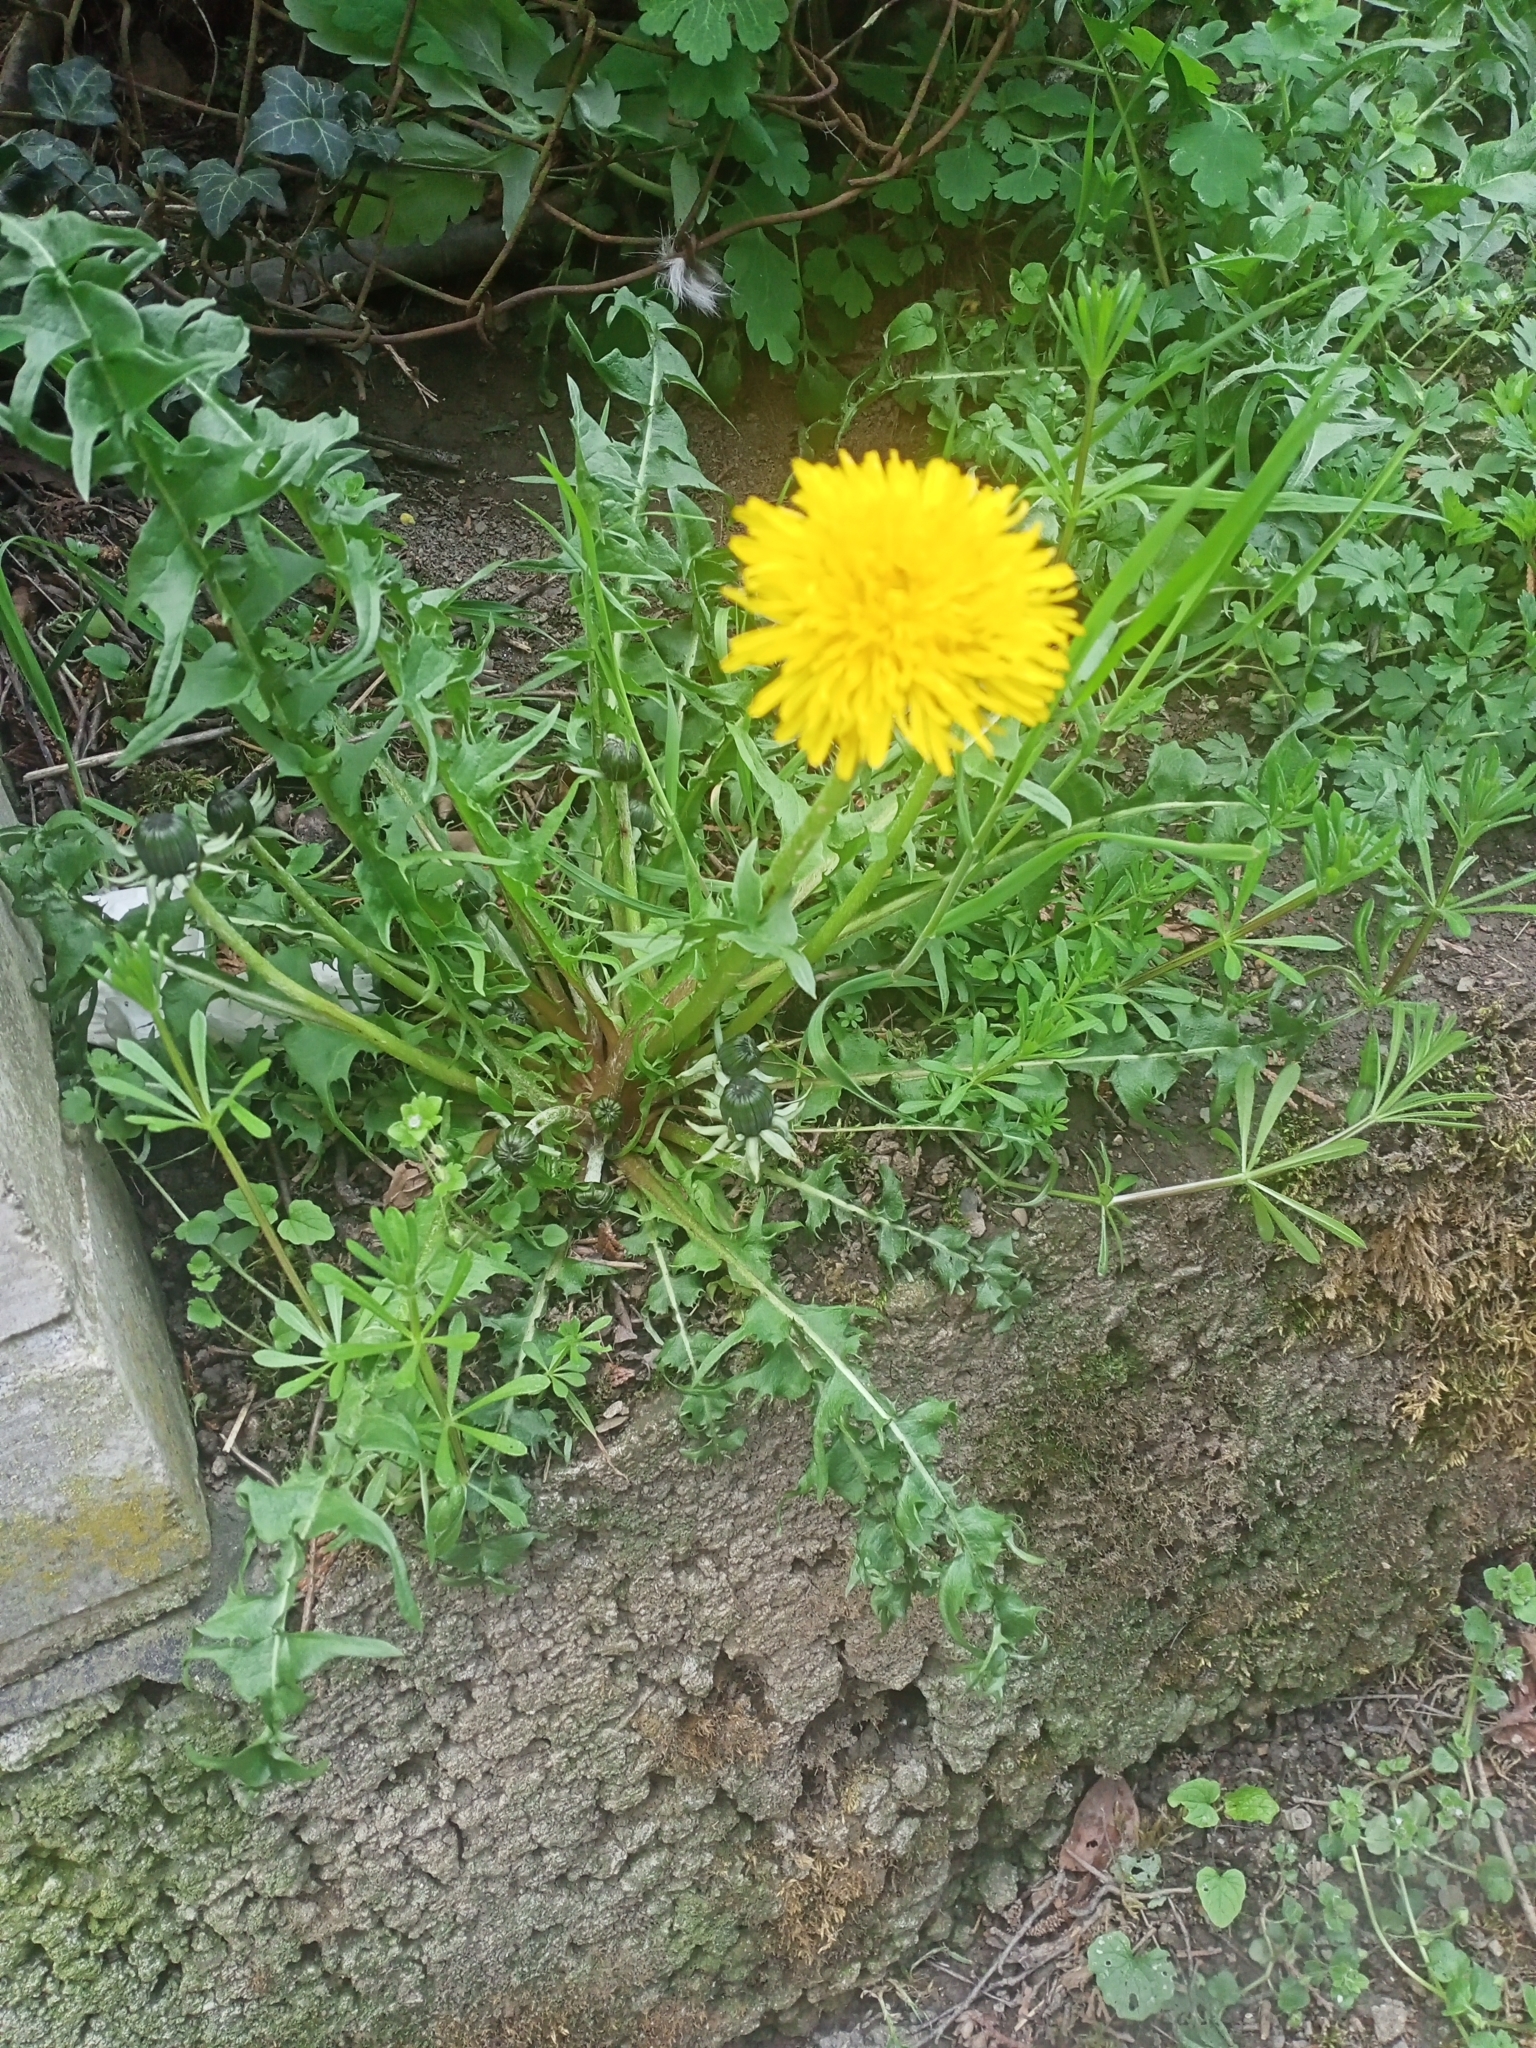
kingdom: Plantae
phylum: Tracheophyta
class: Magnoliopsida
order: Asterales
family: Asteraceae
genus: Taraxacum
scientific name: Taraxacum
